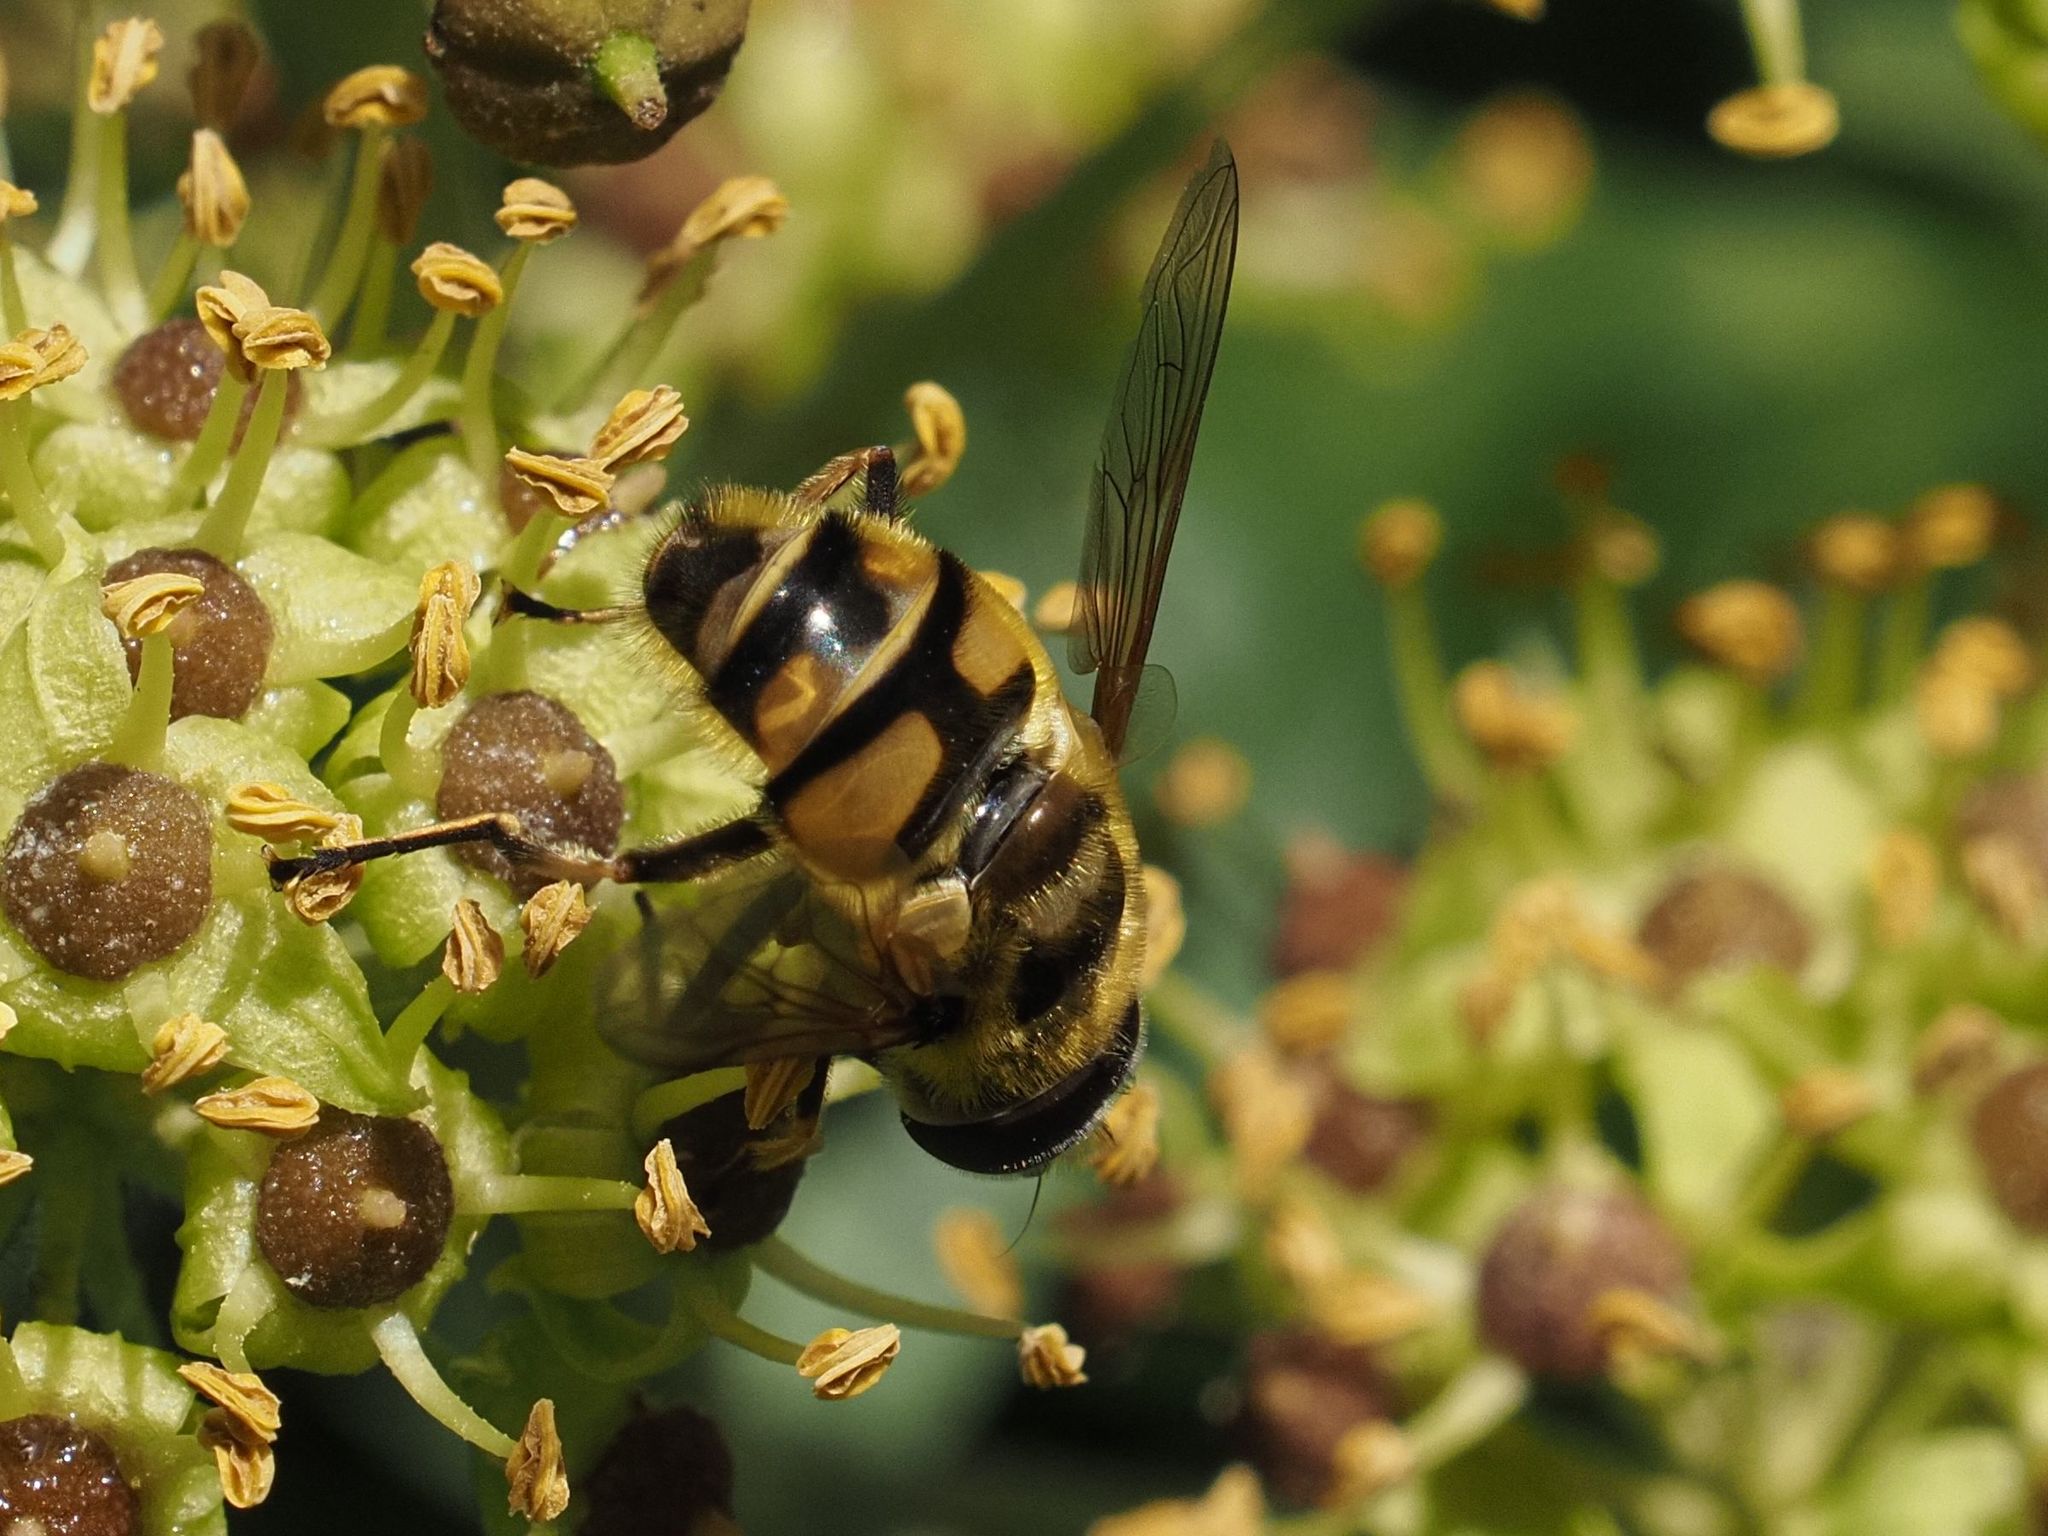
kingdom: Animalia
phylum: Arthropoda
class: Insecta
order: Diptera
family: Syrphidae
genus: Myathropa
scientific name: Myathropa florea
